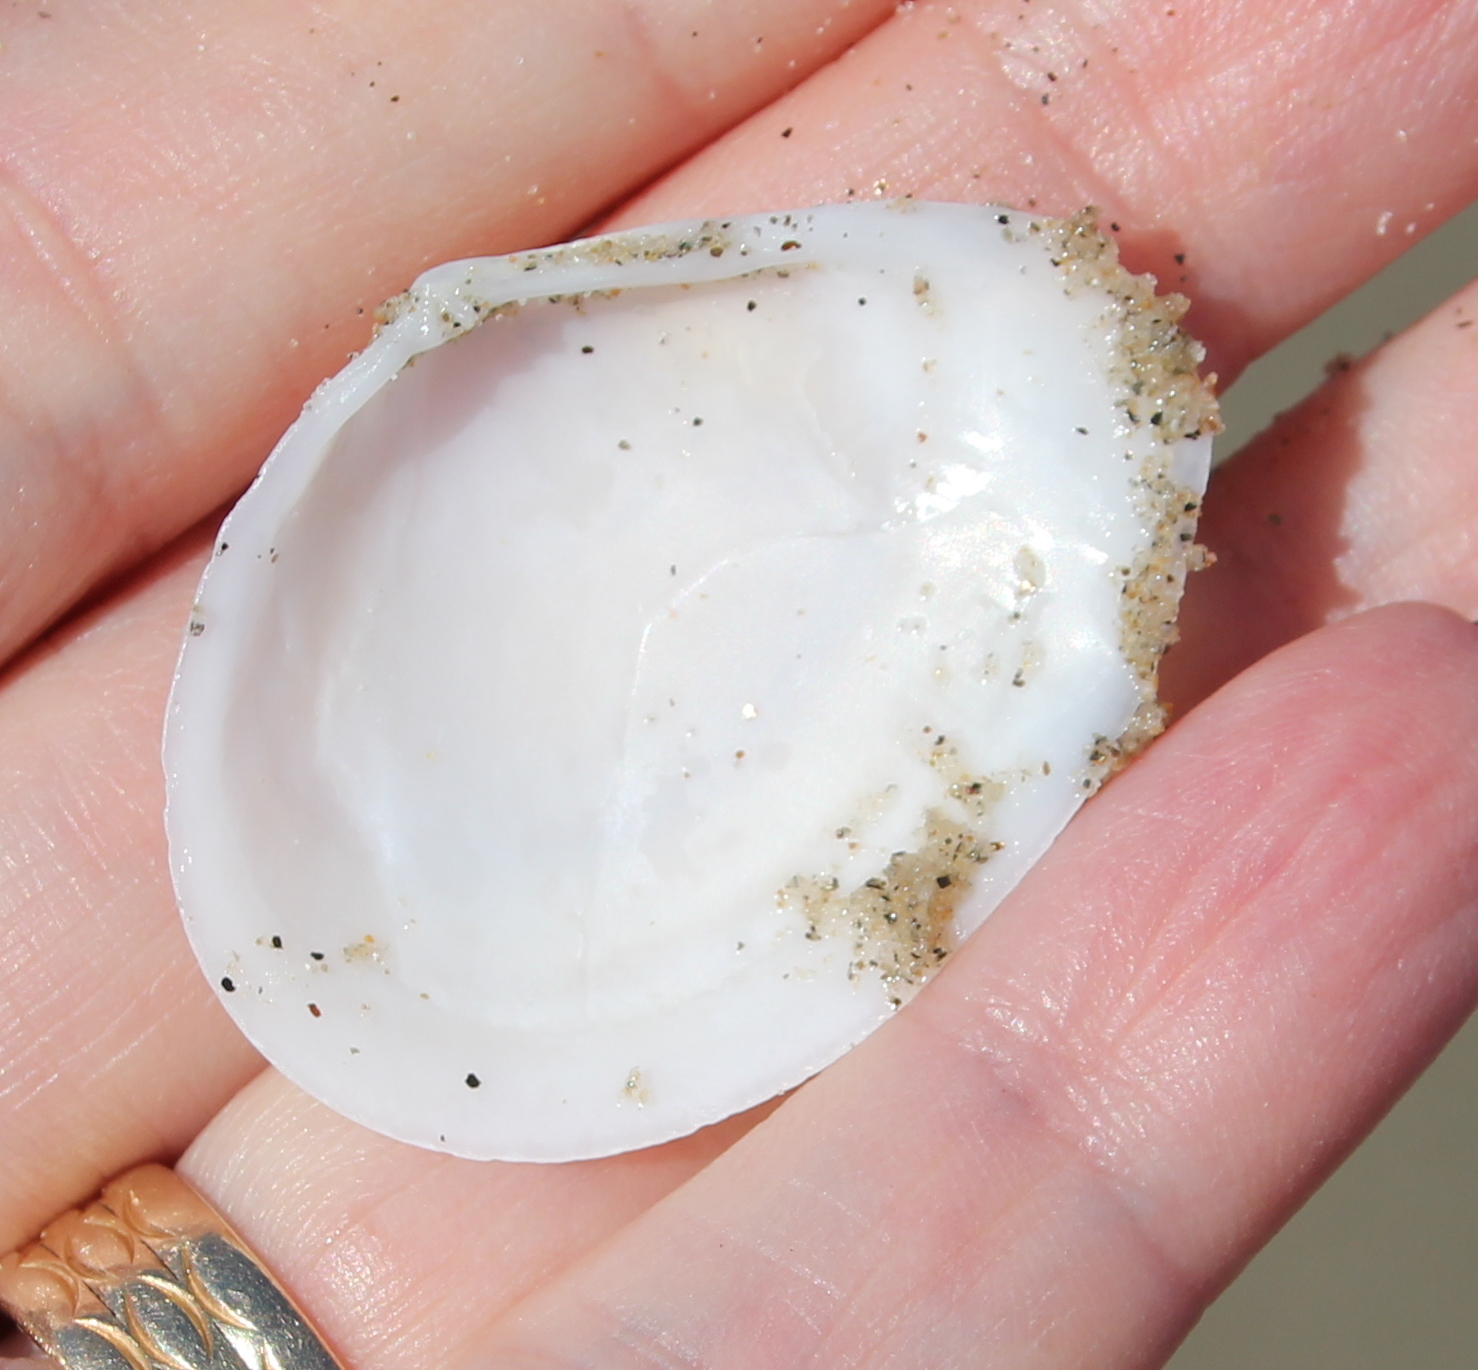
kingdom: Animalia
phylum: Mollusca
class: Bivalvia
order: Cardiida
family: Tellinidae
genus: Macoma
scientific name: Macoma nasuta
